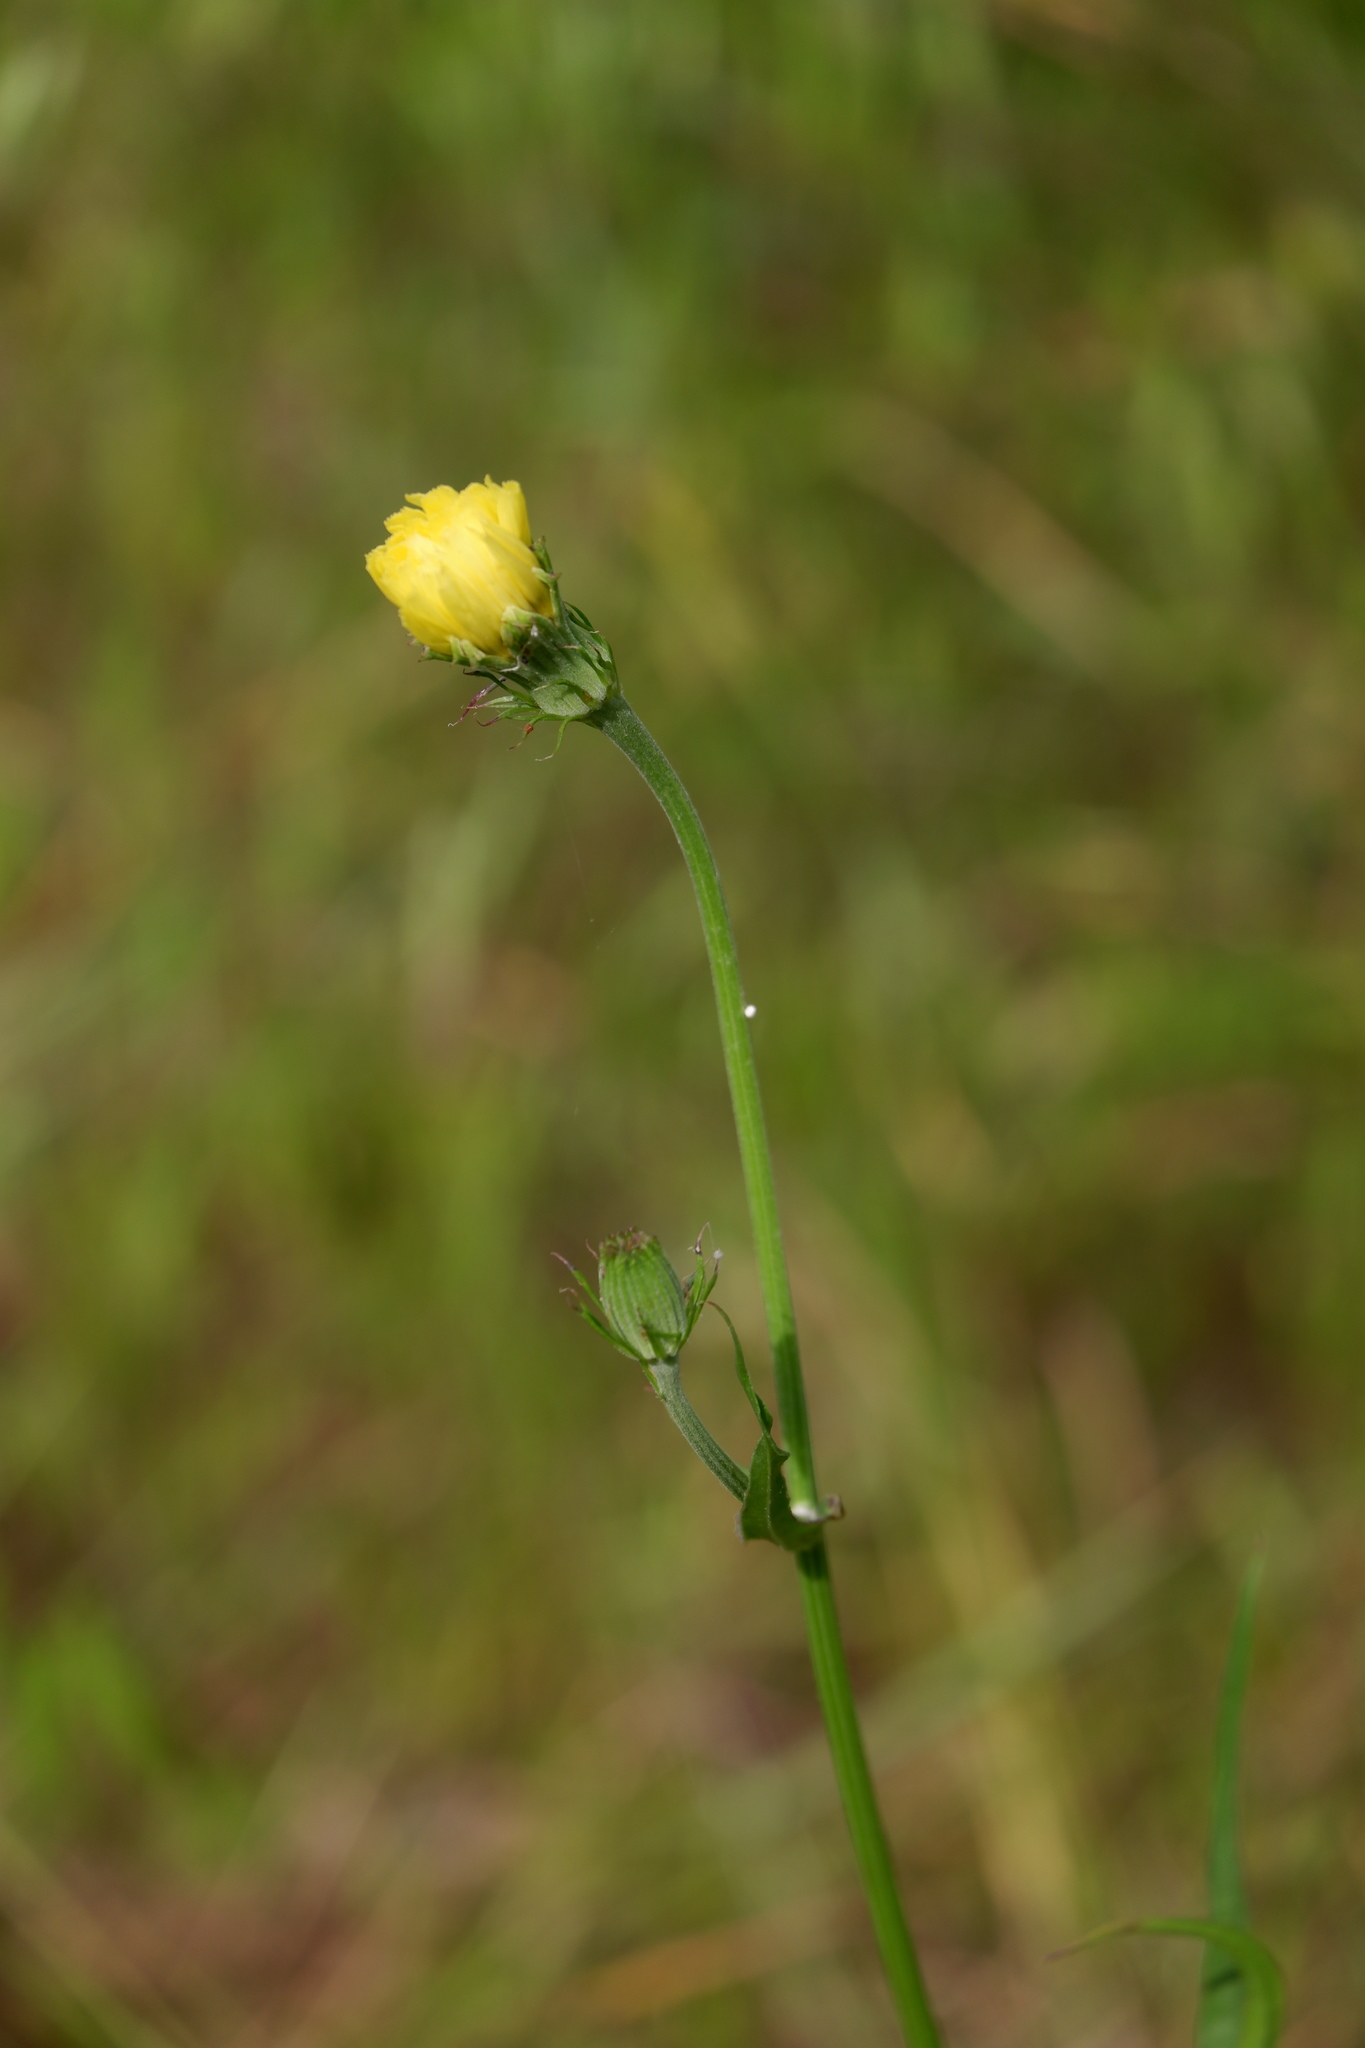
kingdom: Plantae
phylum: Tracheophyta
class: Magnoliopsida
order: Asterales
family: Asteraceae
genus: Pyrrhopappus
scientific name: Pyrrhopappus carolinianus
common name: Carolina desert-chicory
